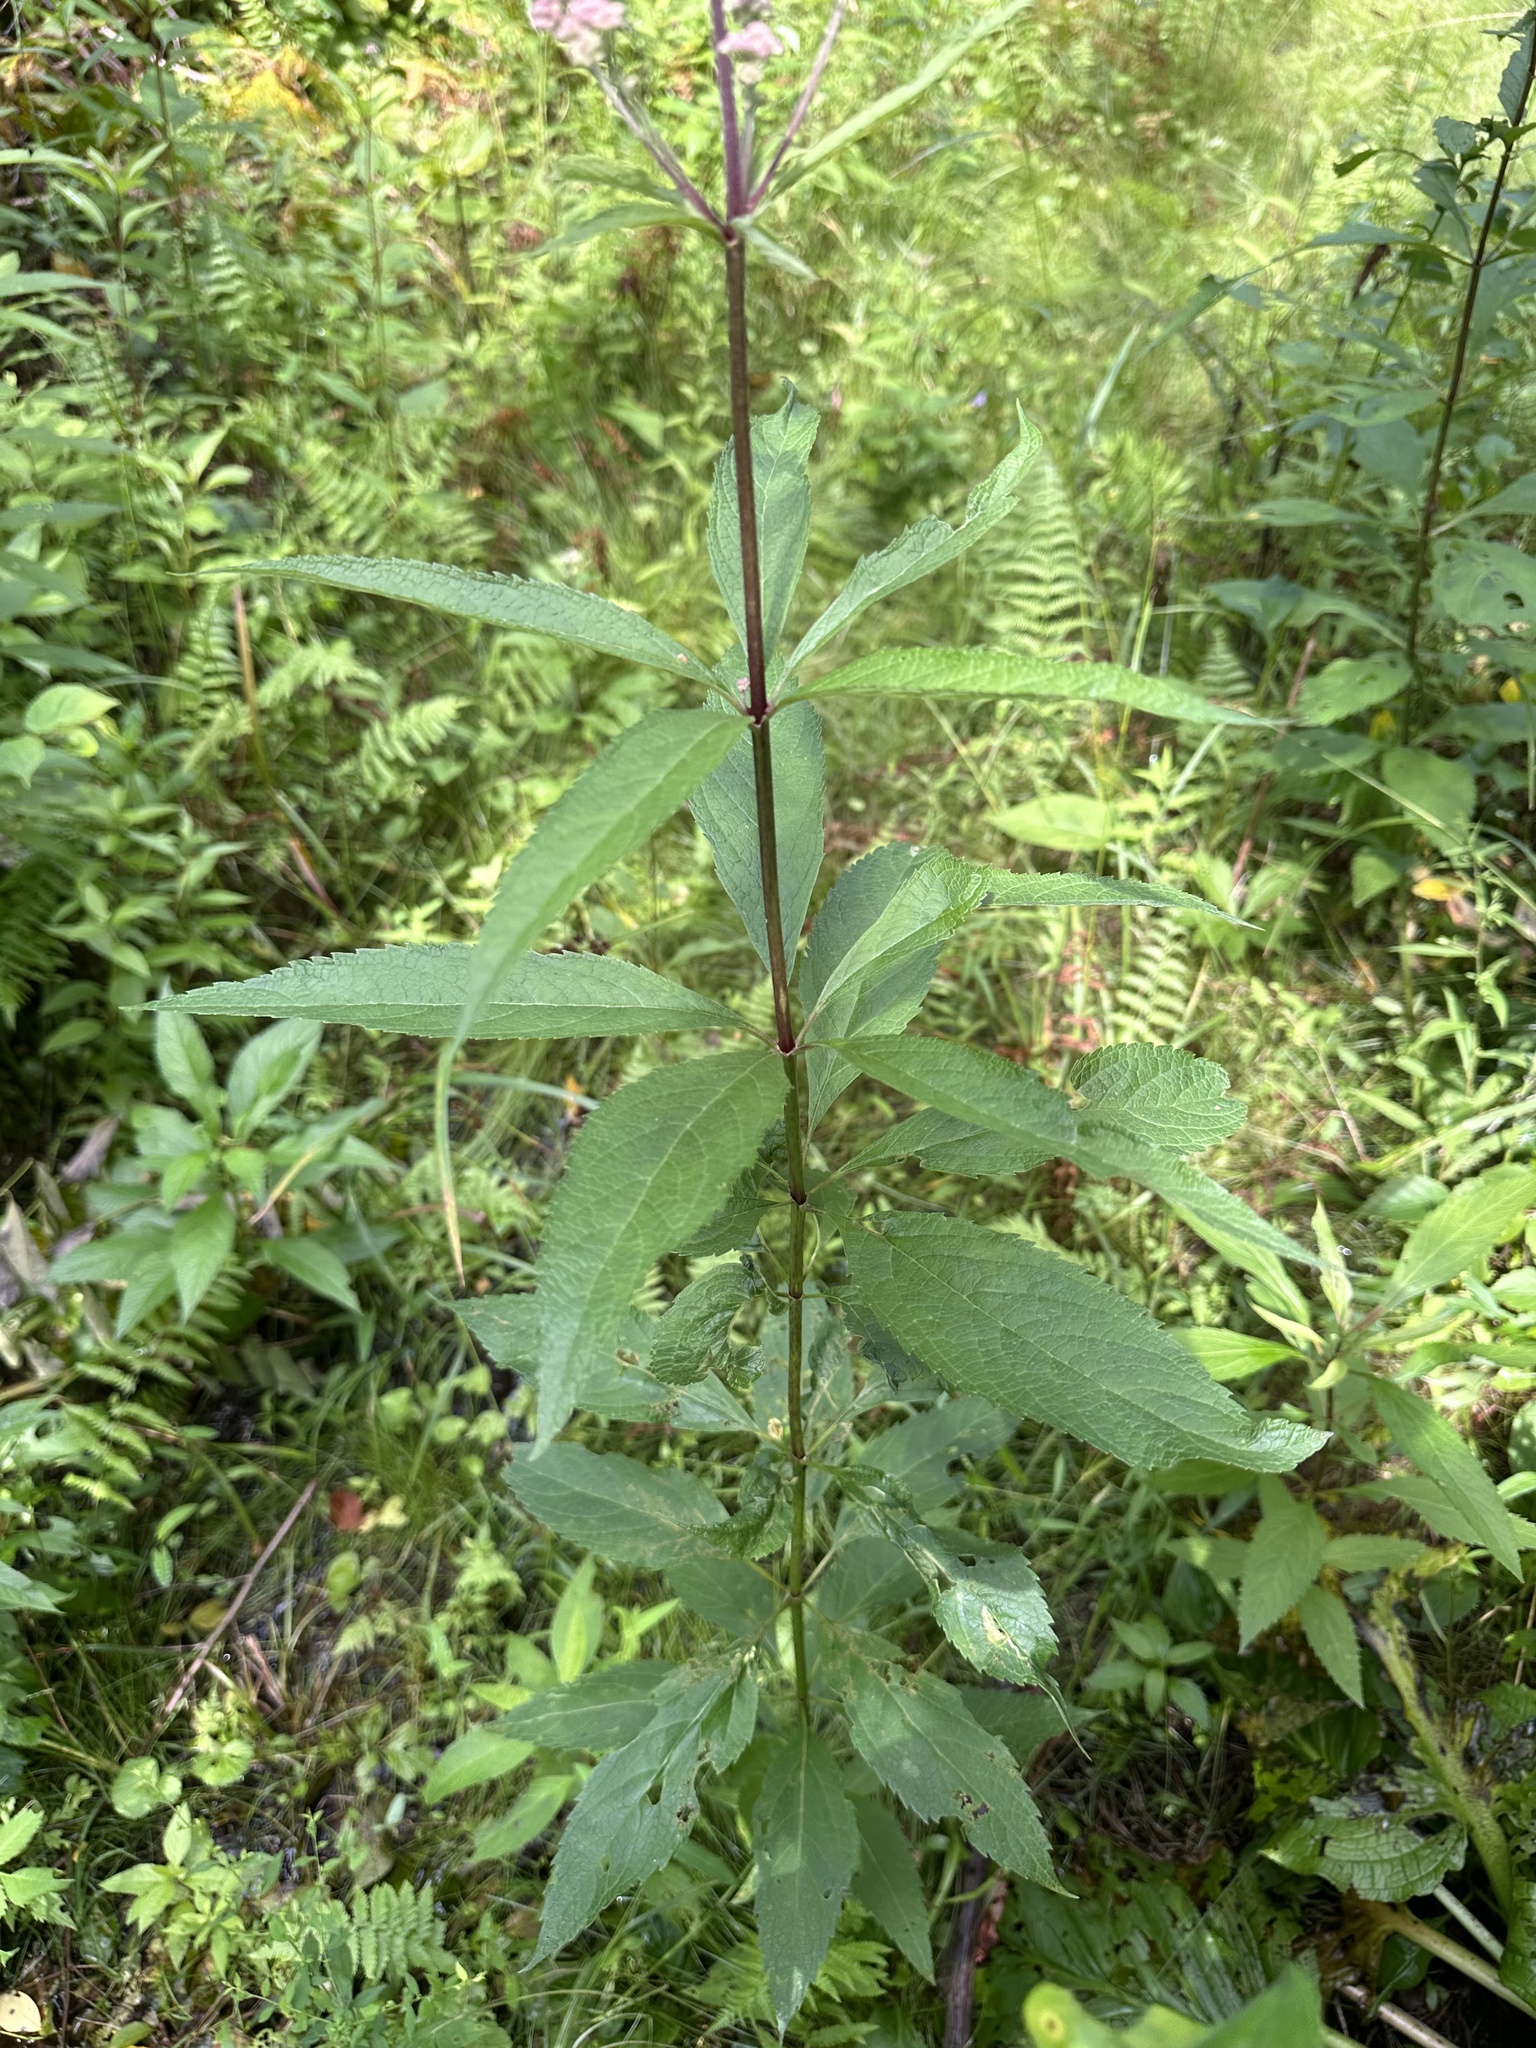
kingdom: Plantae
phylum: Tracheophyta
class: Magnoliopsida
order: Asterales
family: Asteraceae
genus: Eutrochium
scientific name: Eutrochium maculatum
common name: Spotted joe pye weed
